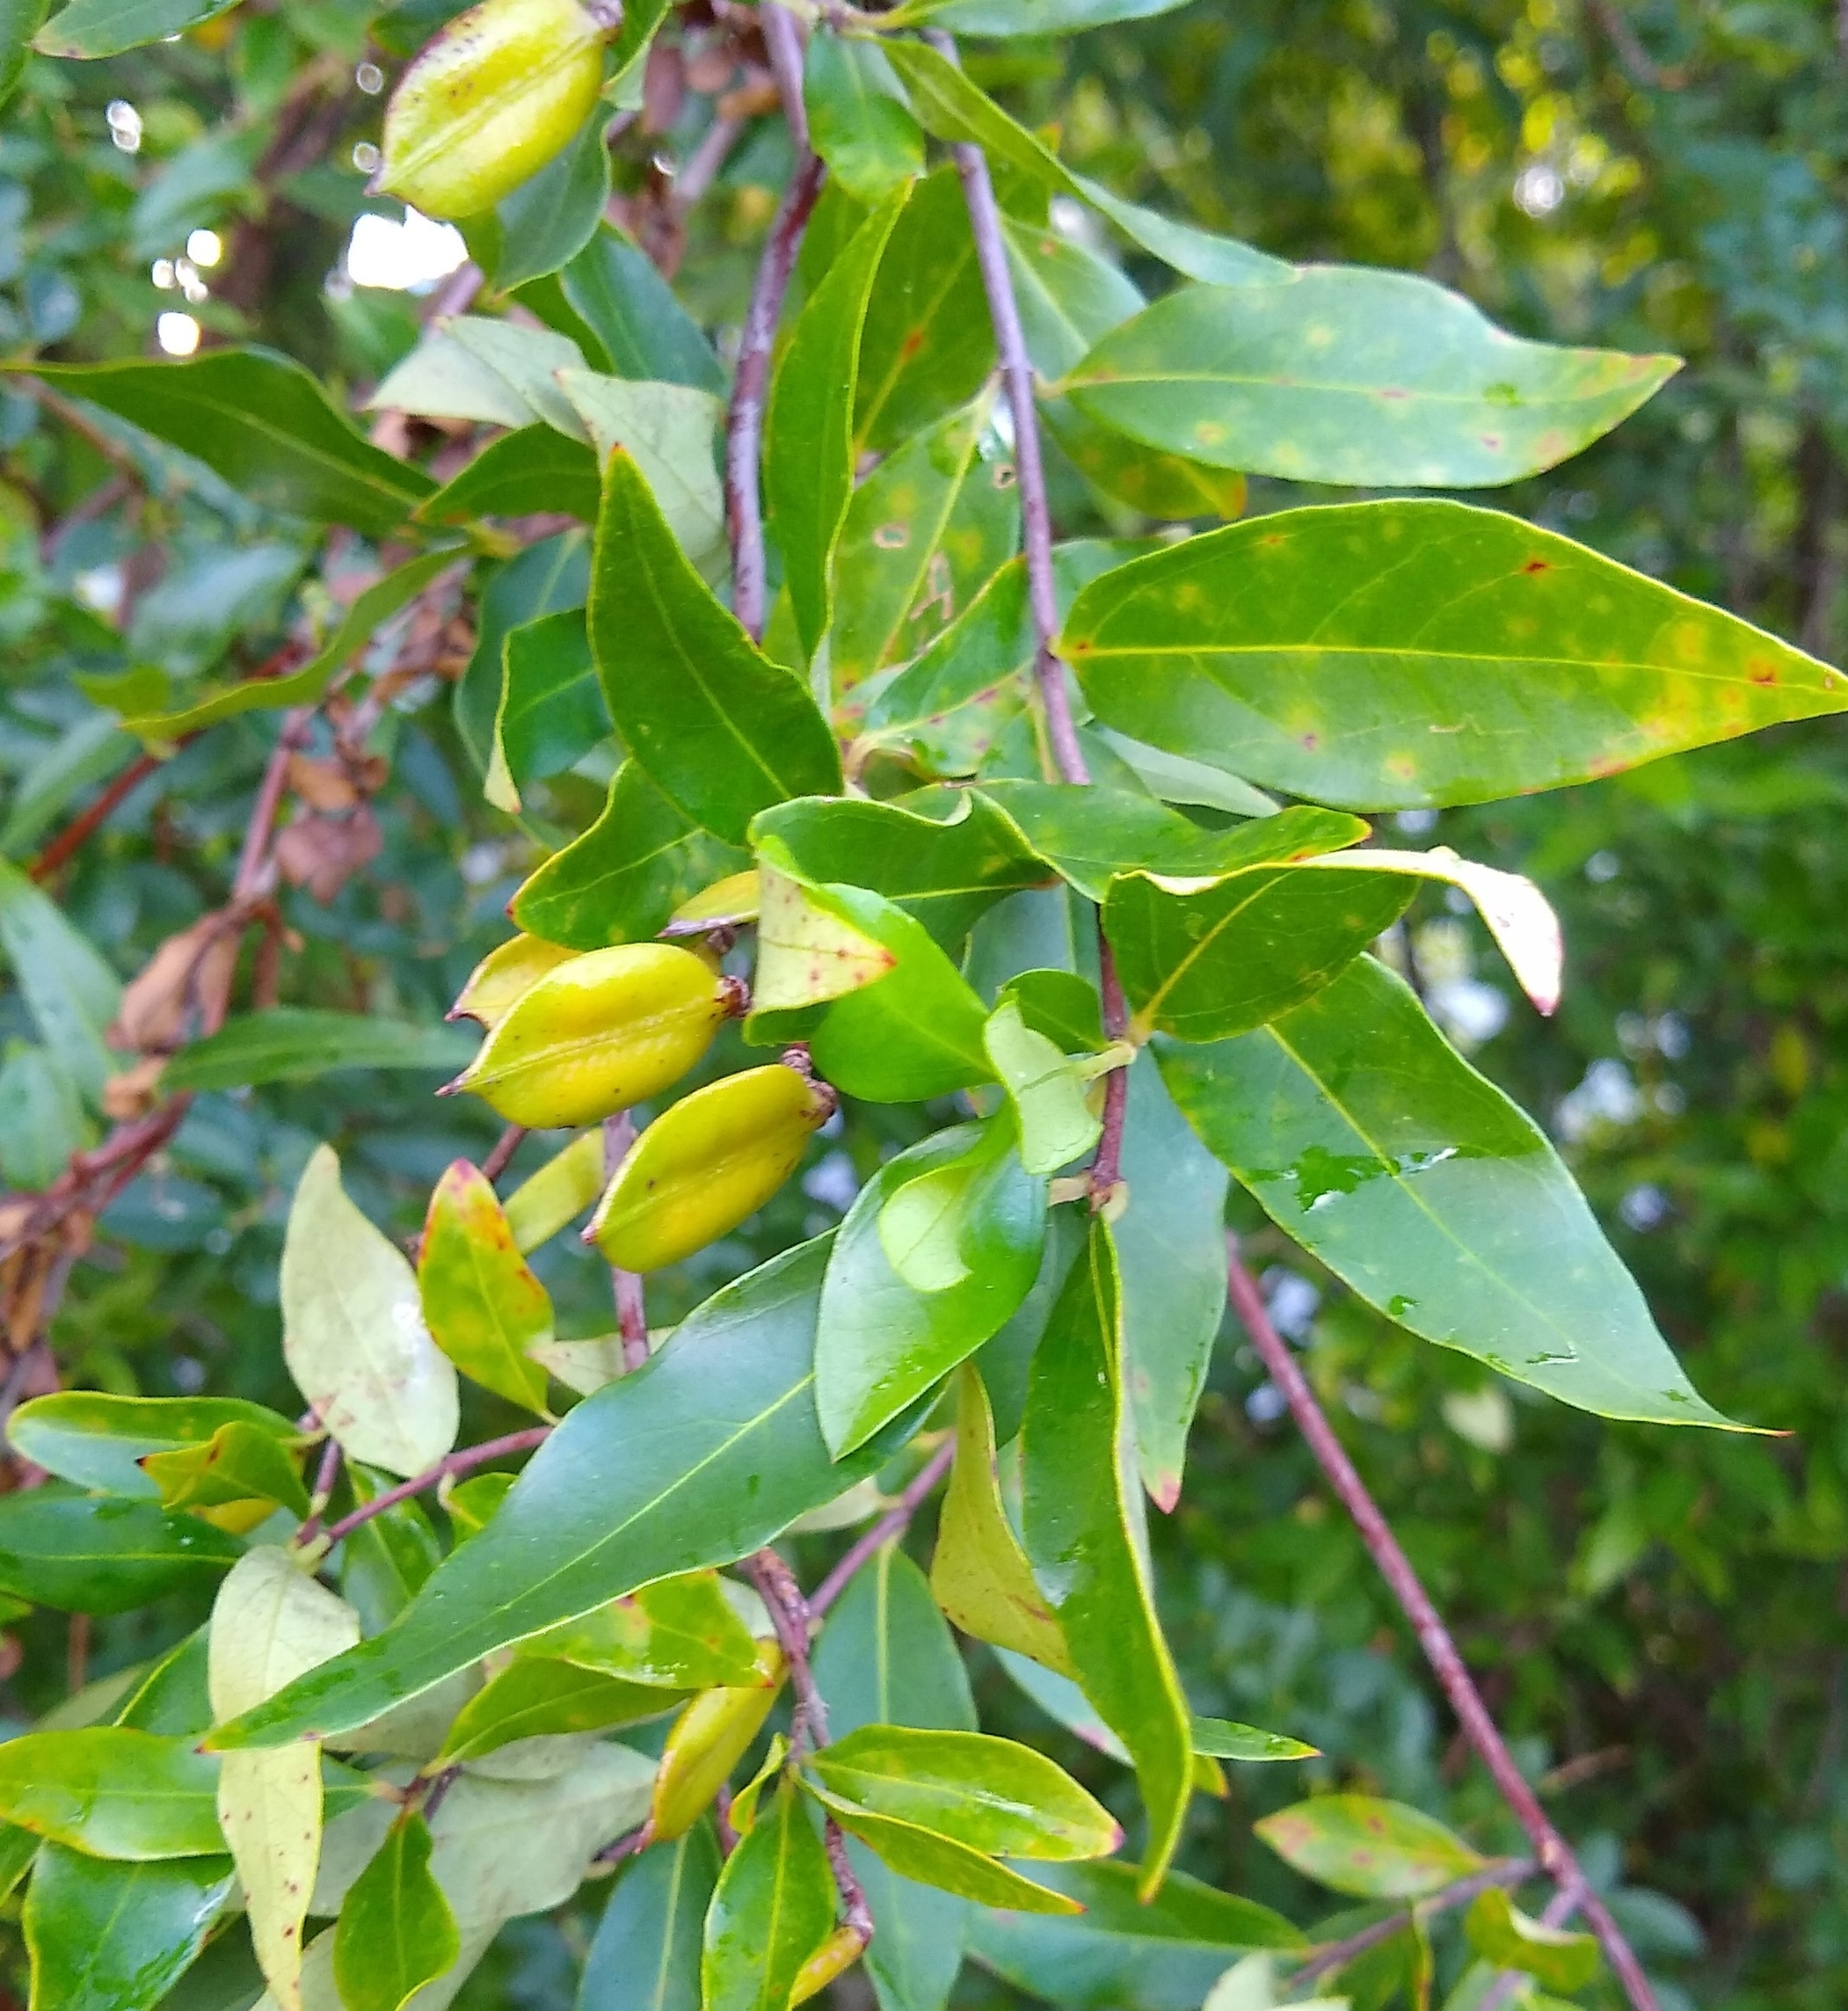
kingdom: Plantae
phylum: Tracheophyta
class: Magnoliopsida
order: Gentianales
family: Gelsemiaceae
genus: Gelsemium
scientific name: Gelsemium sempervirens
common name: Carolina-jasmine
